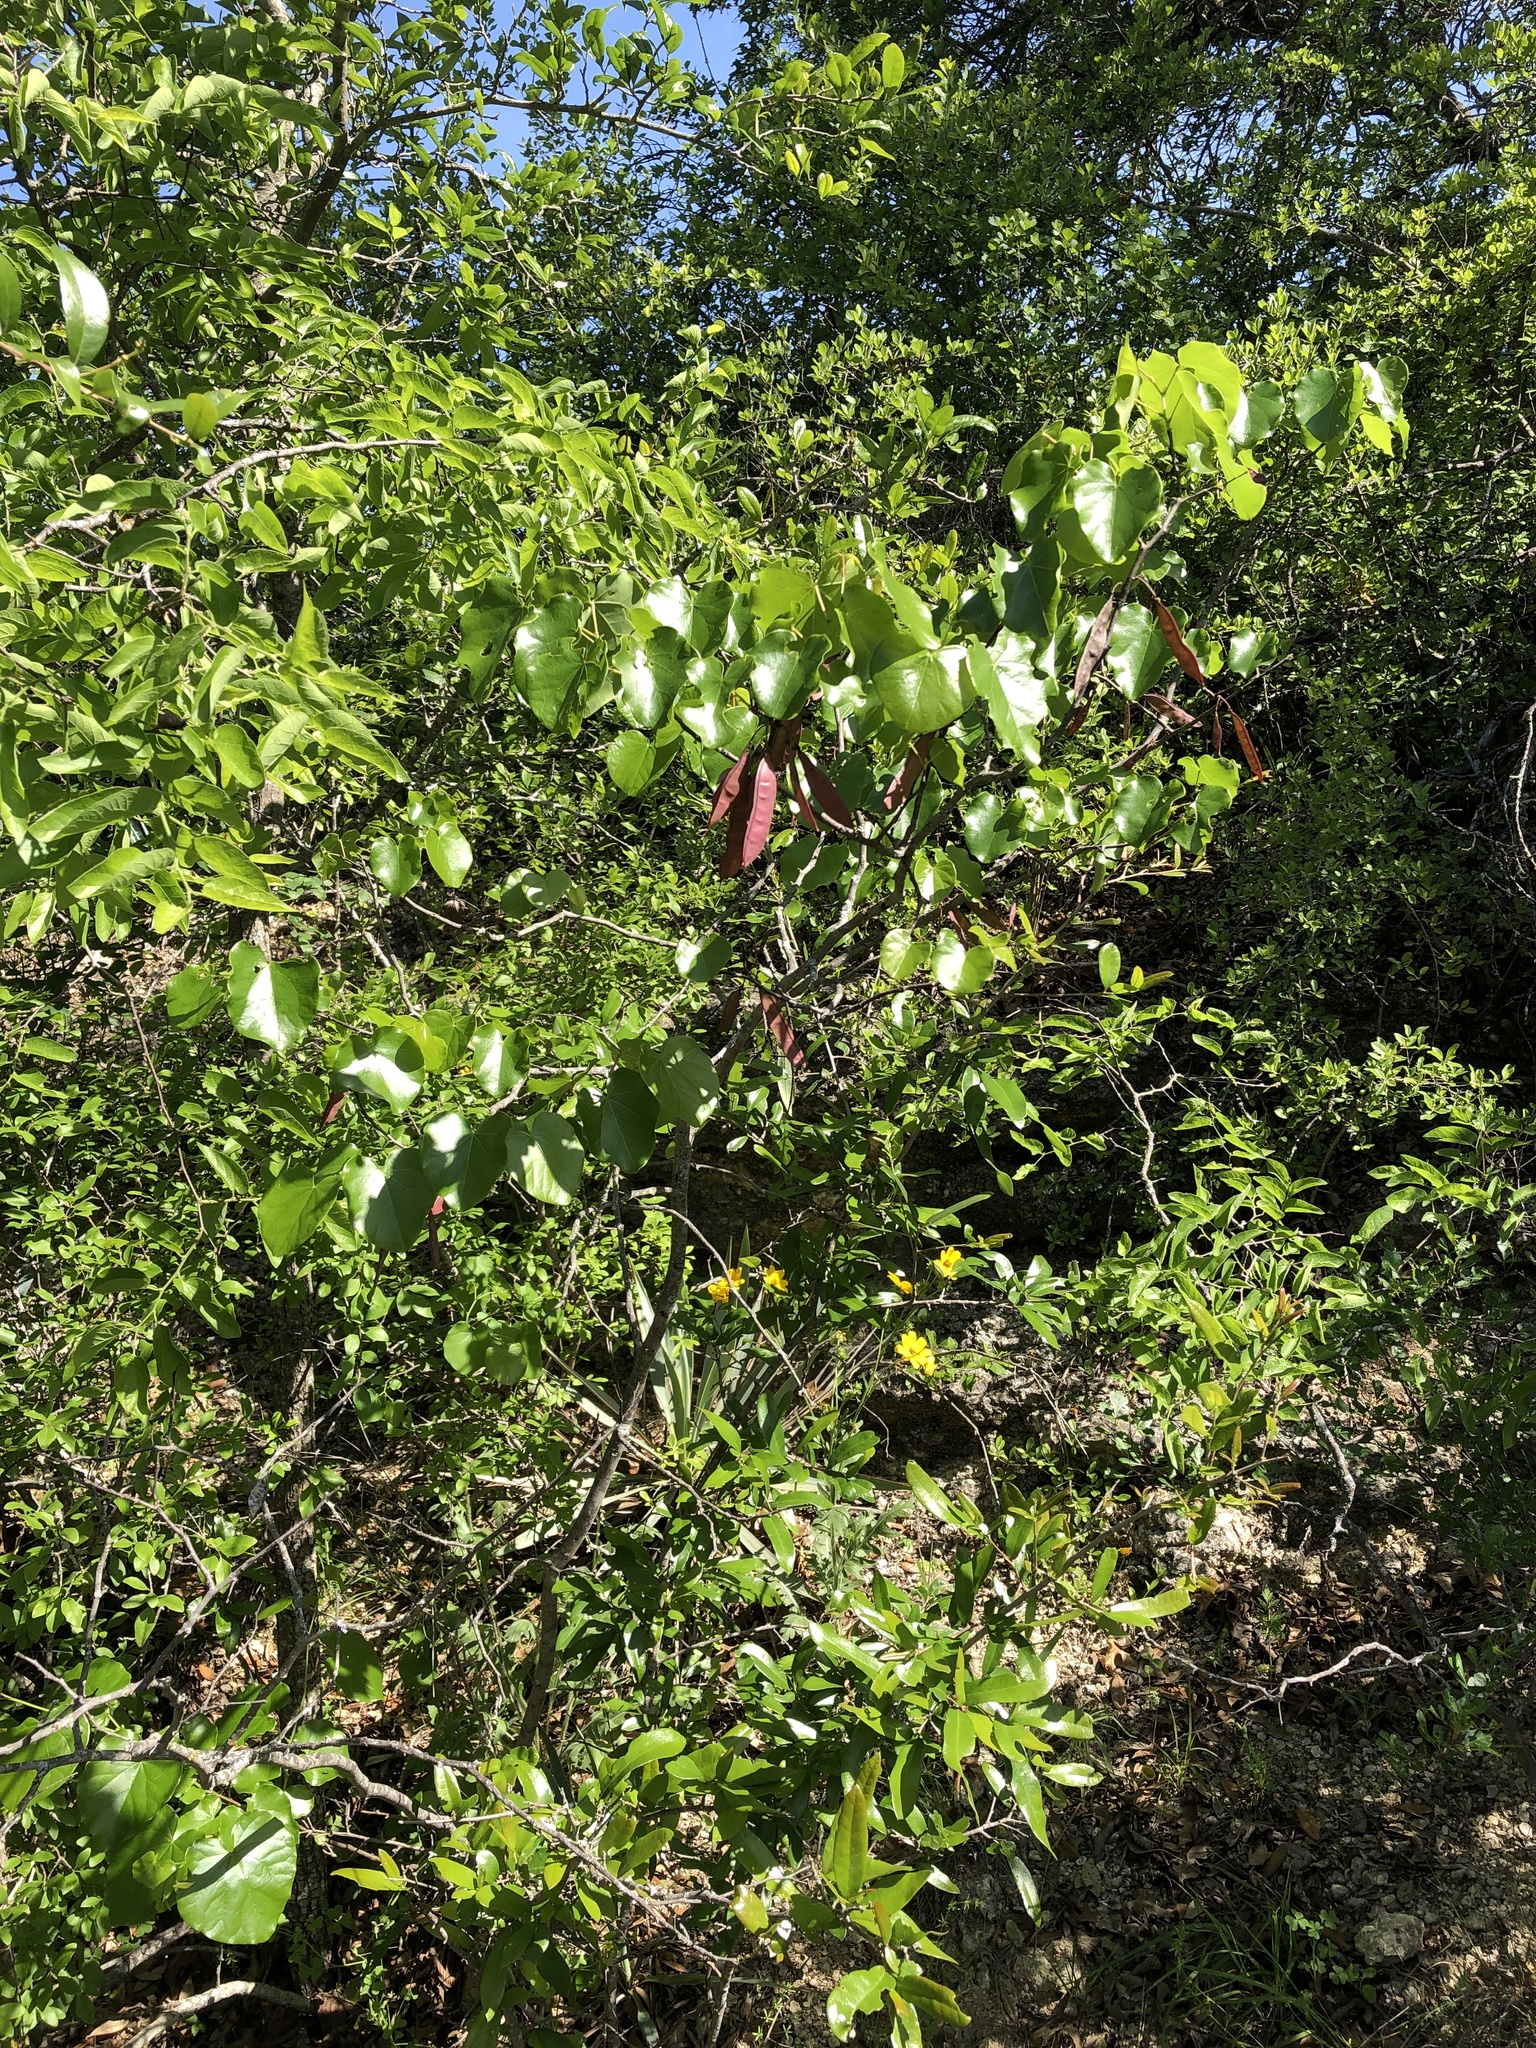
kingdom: Plantae
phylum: Tracheophyta
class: Magnoliopsida
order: Fabales
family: Fabaceae
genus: Cercis
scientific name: Cercis canadensis
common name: Eastern redbud
